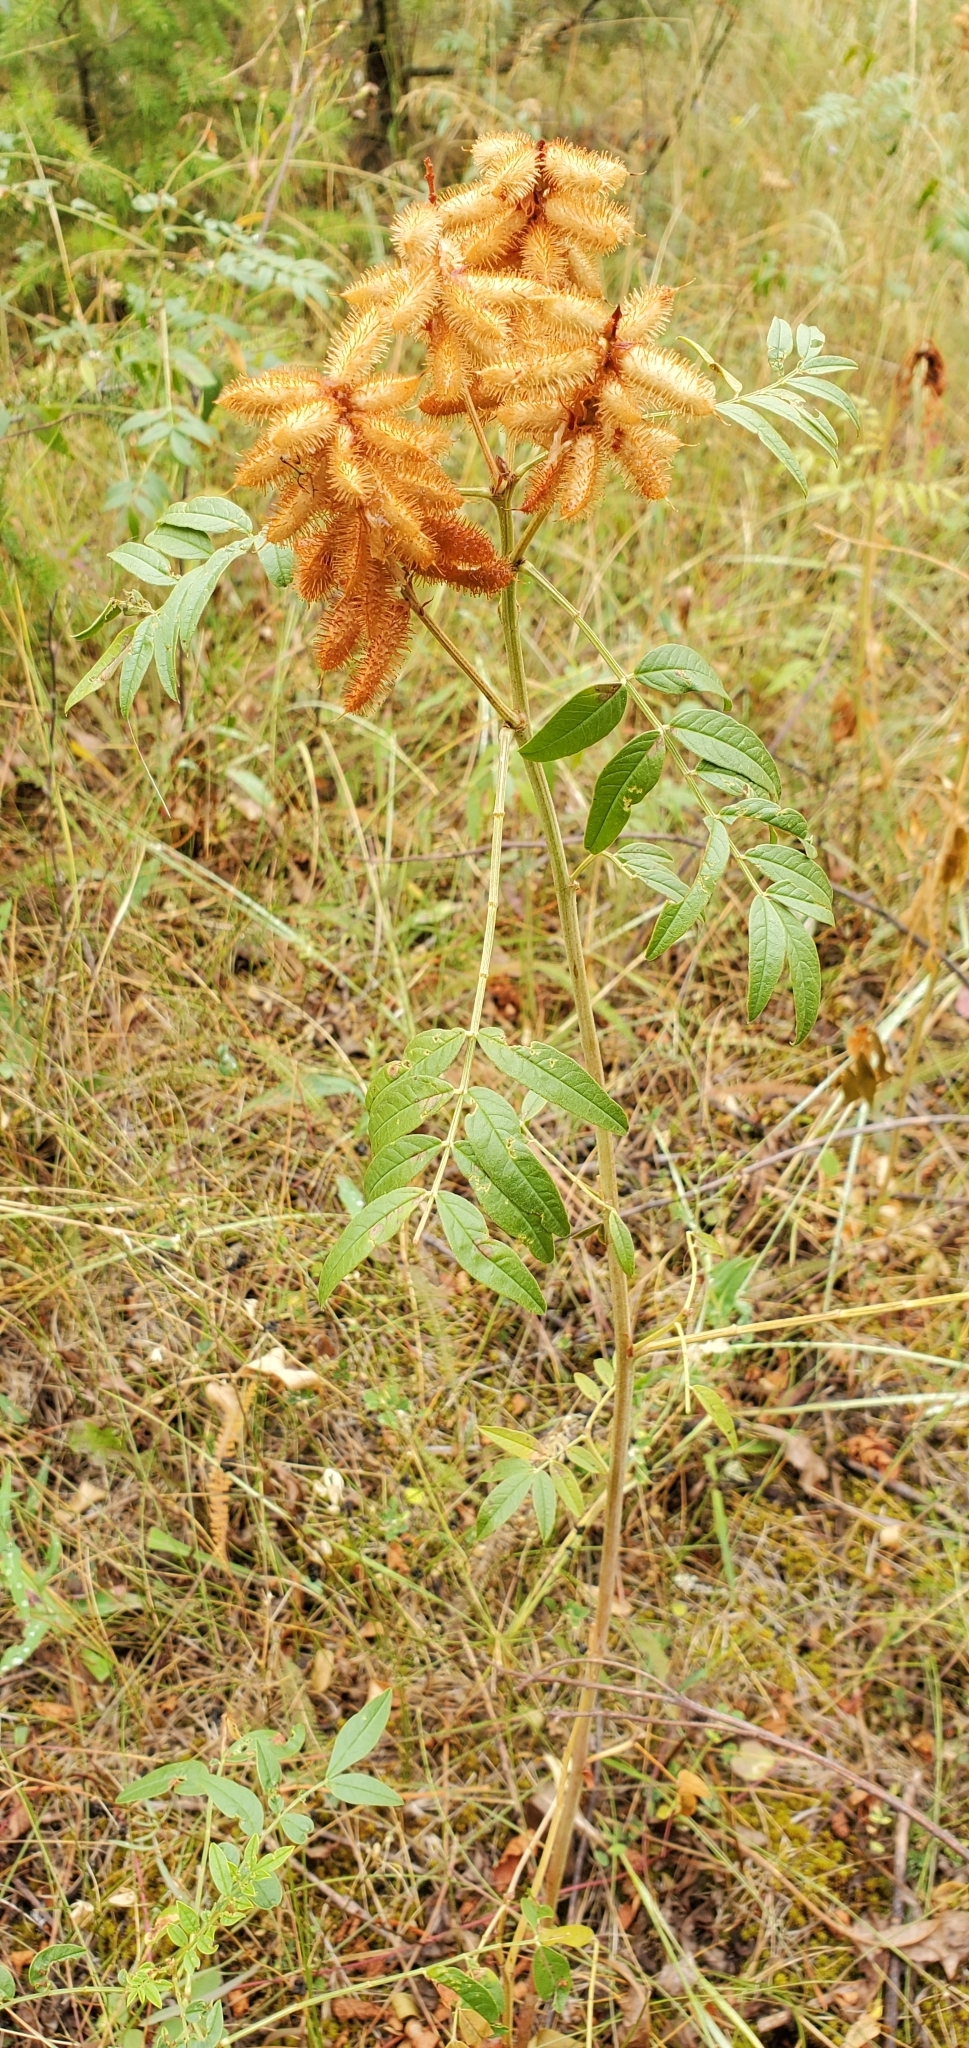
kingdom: Plantae
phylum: Tracheophyta
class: Magnoliopsida
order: Fabales
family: Fabaceae
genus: Glycyrrhiza
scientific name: Glycyrrhiza lepidota
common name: American liquorice
